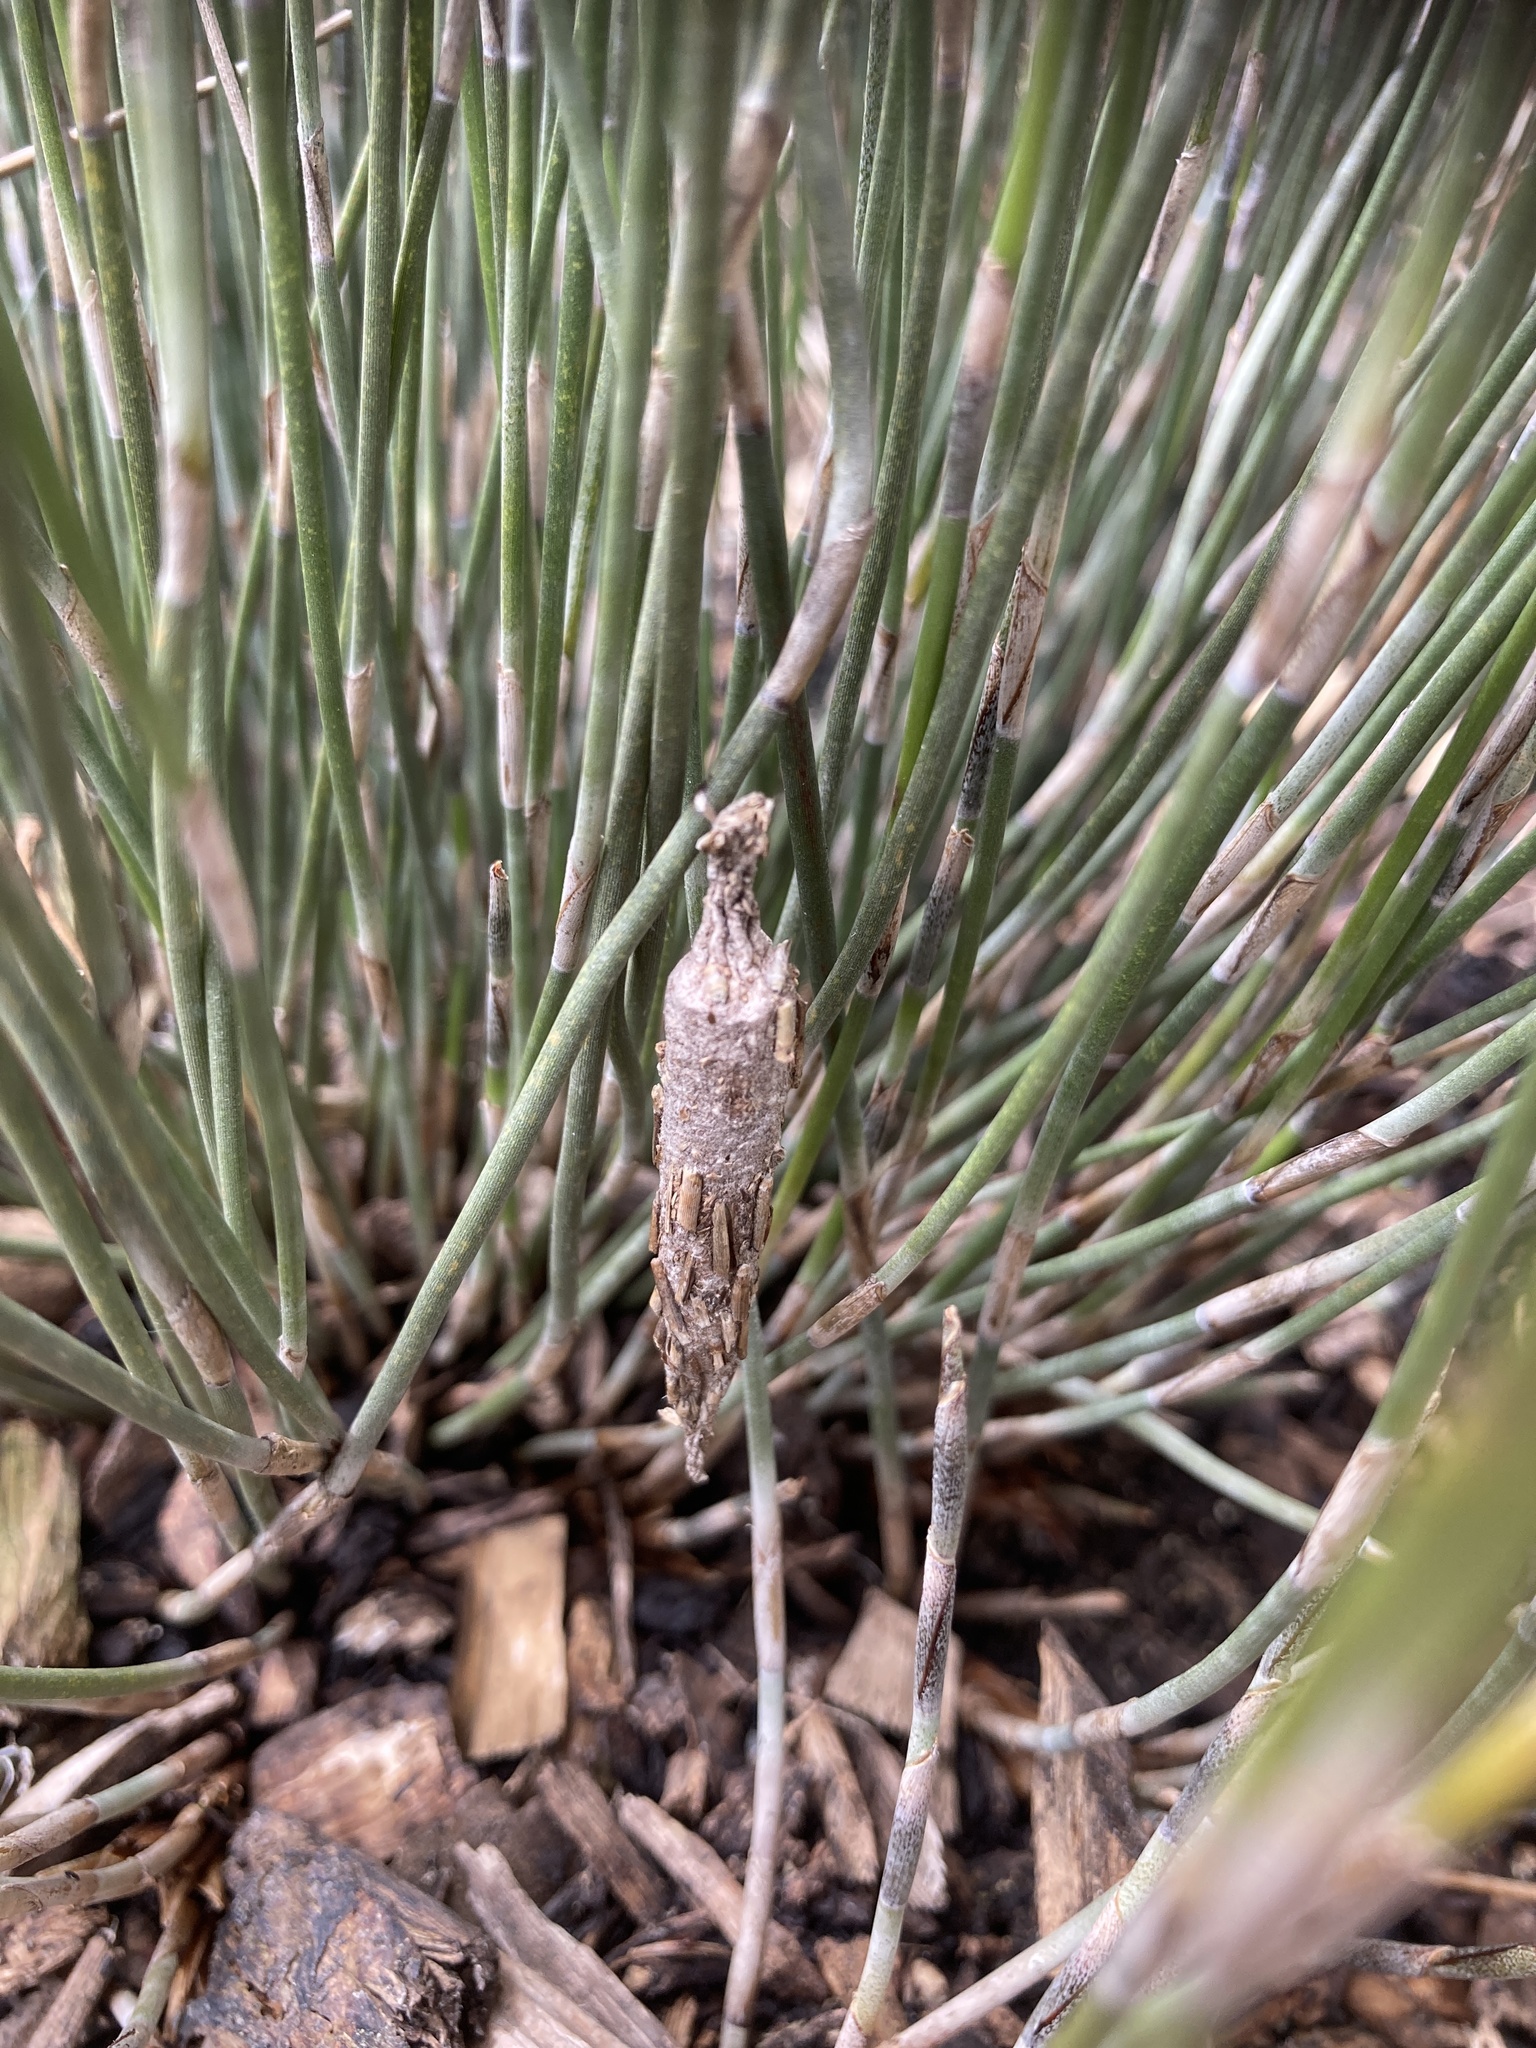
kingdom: Animalia
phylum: Arthropoda
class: Insecta
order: Lepidoptera
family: Psychidae
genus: Liothula
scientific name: Liothula omnivora
